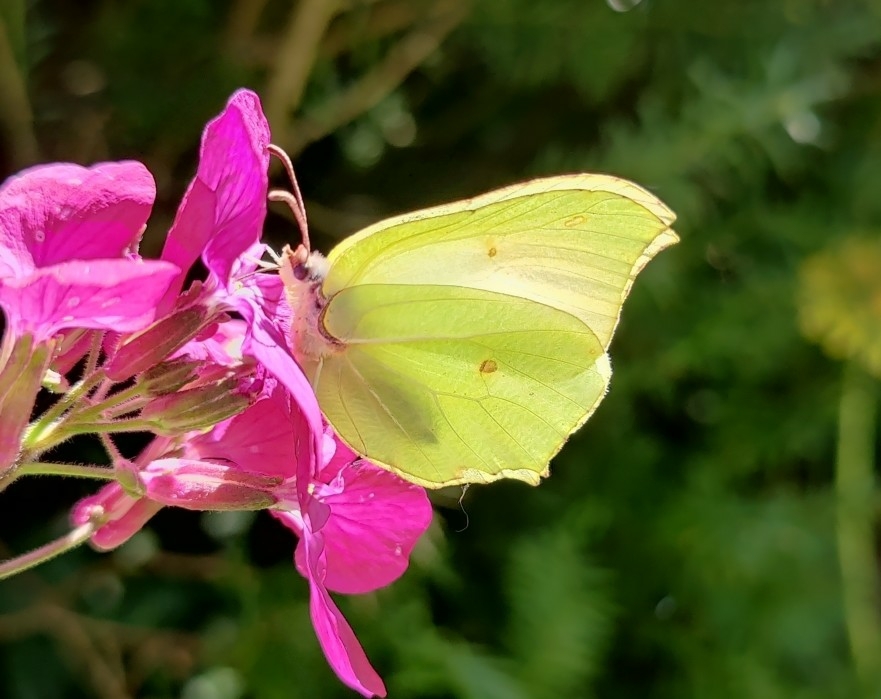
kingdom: Animalia
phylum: Arthropoda
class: Insecta
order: Lepidoptera
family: Pieridae
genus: Gonepteryx
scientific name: Gonepteryx rhamni
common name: Brimstone
